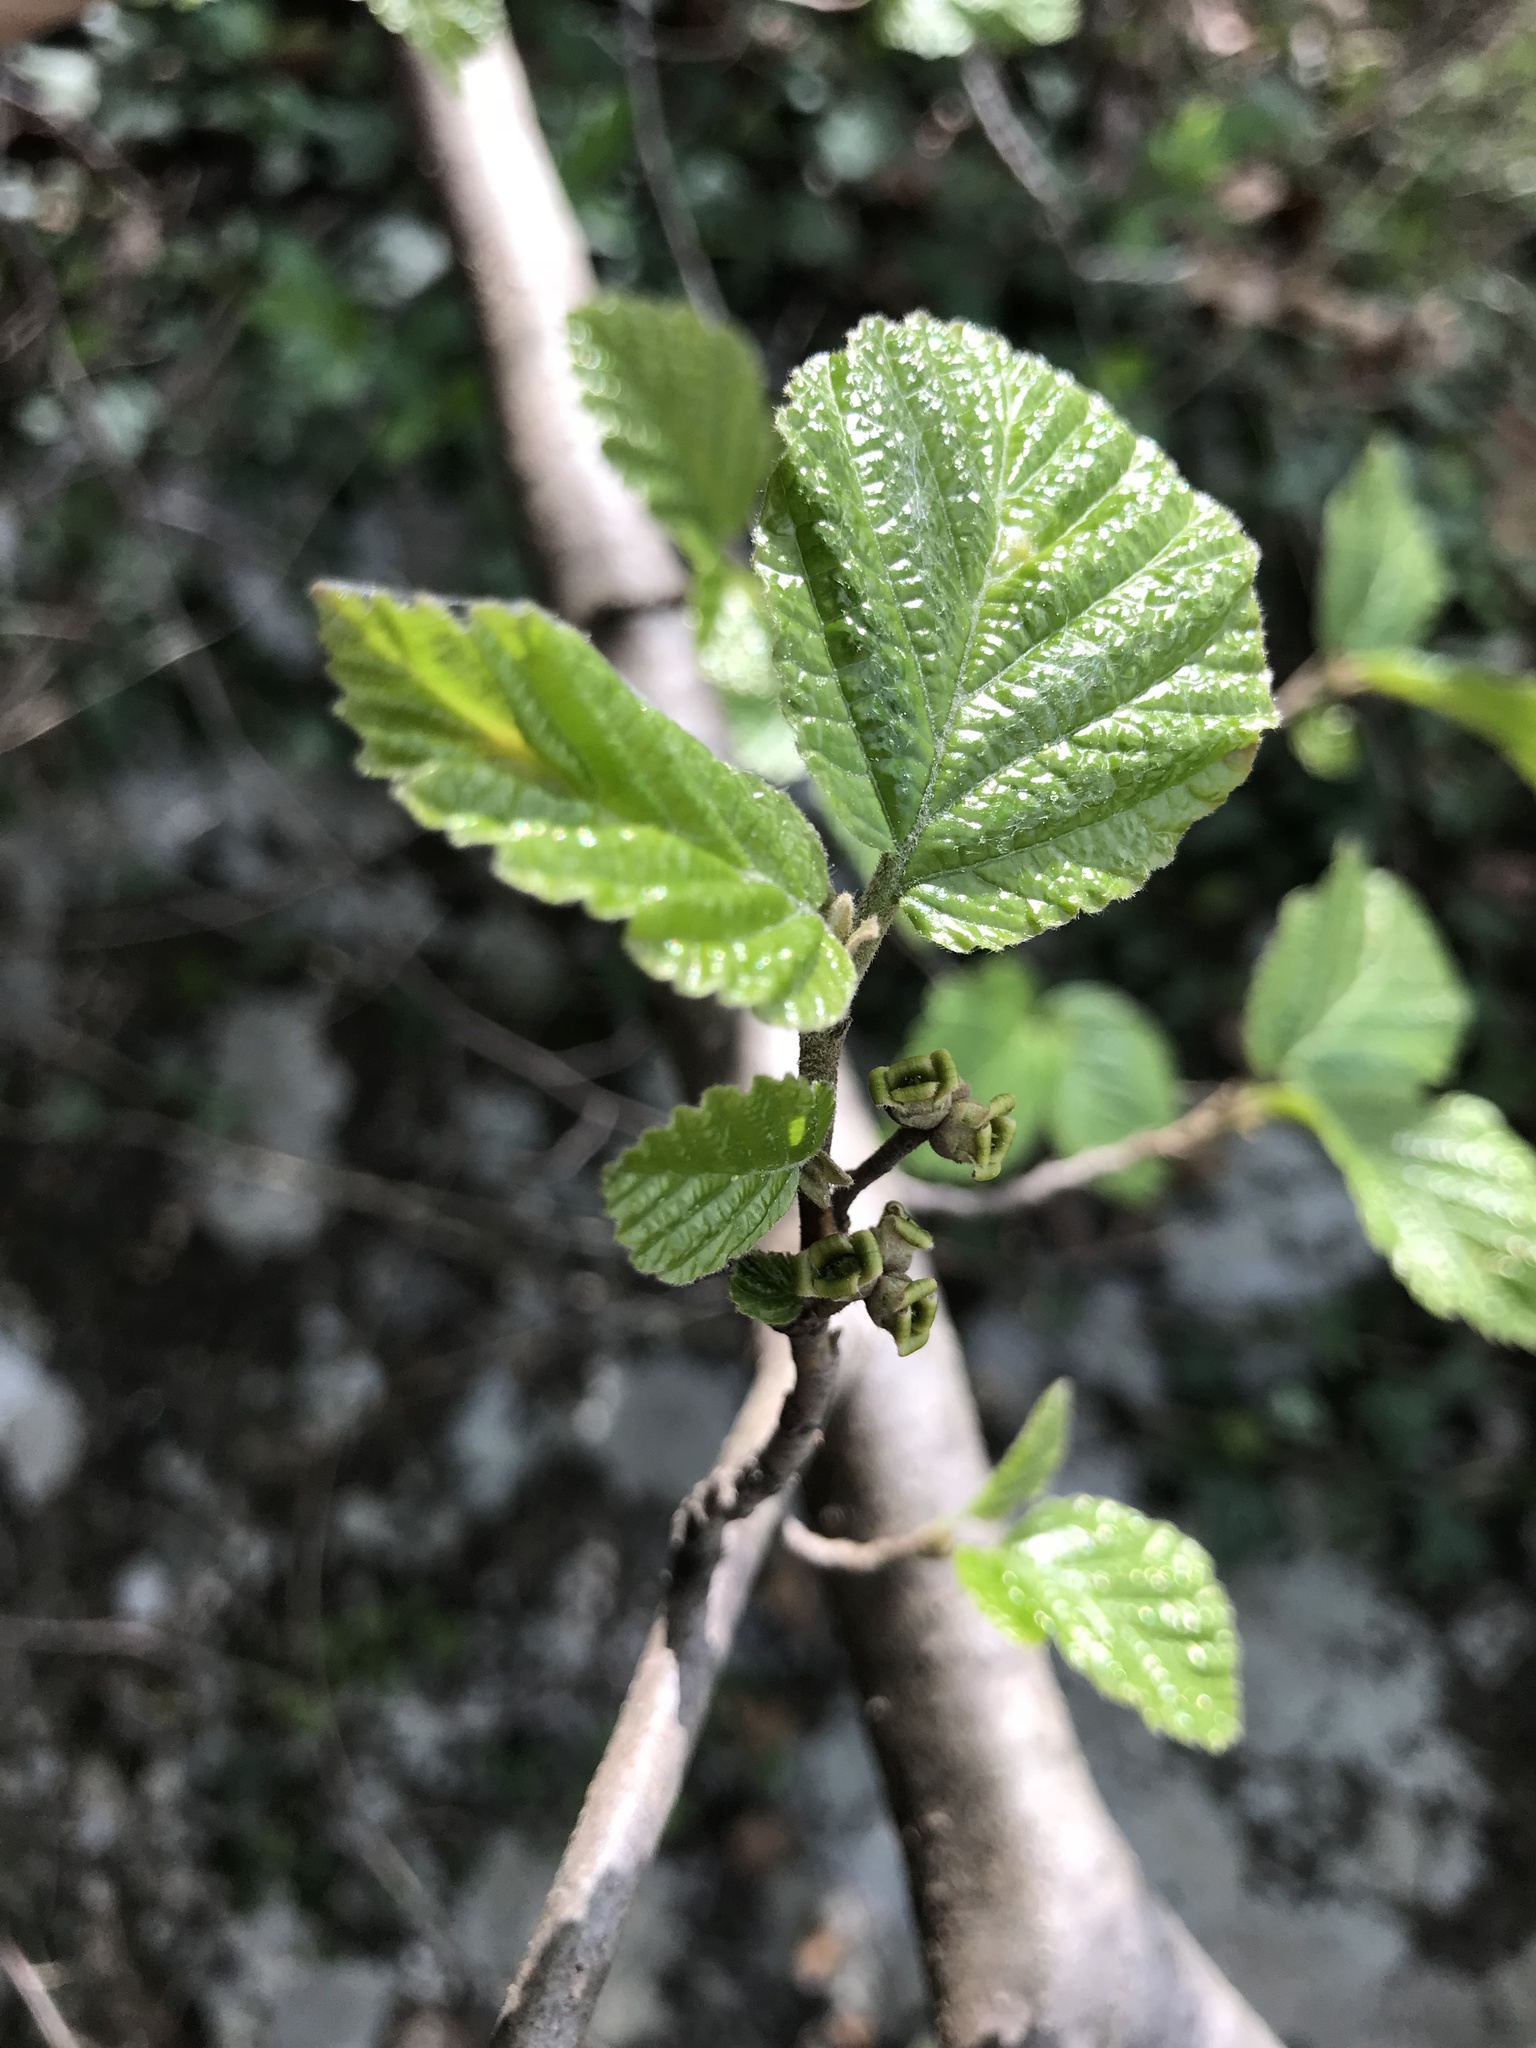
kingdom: Plantae
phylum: Tracheophyta
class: Magnoliopsida
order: Saxifragales
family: Hamamelidaceae
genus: Hamamelis
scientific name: Hamamelis virginiana
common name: Witch-hazel
